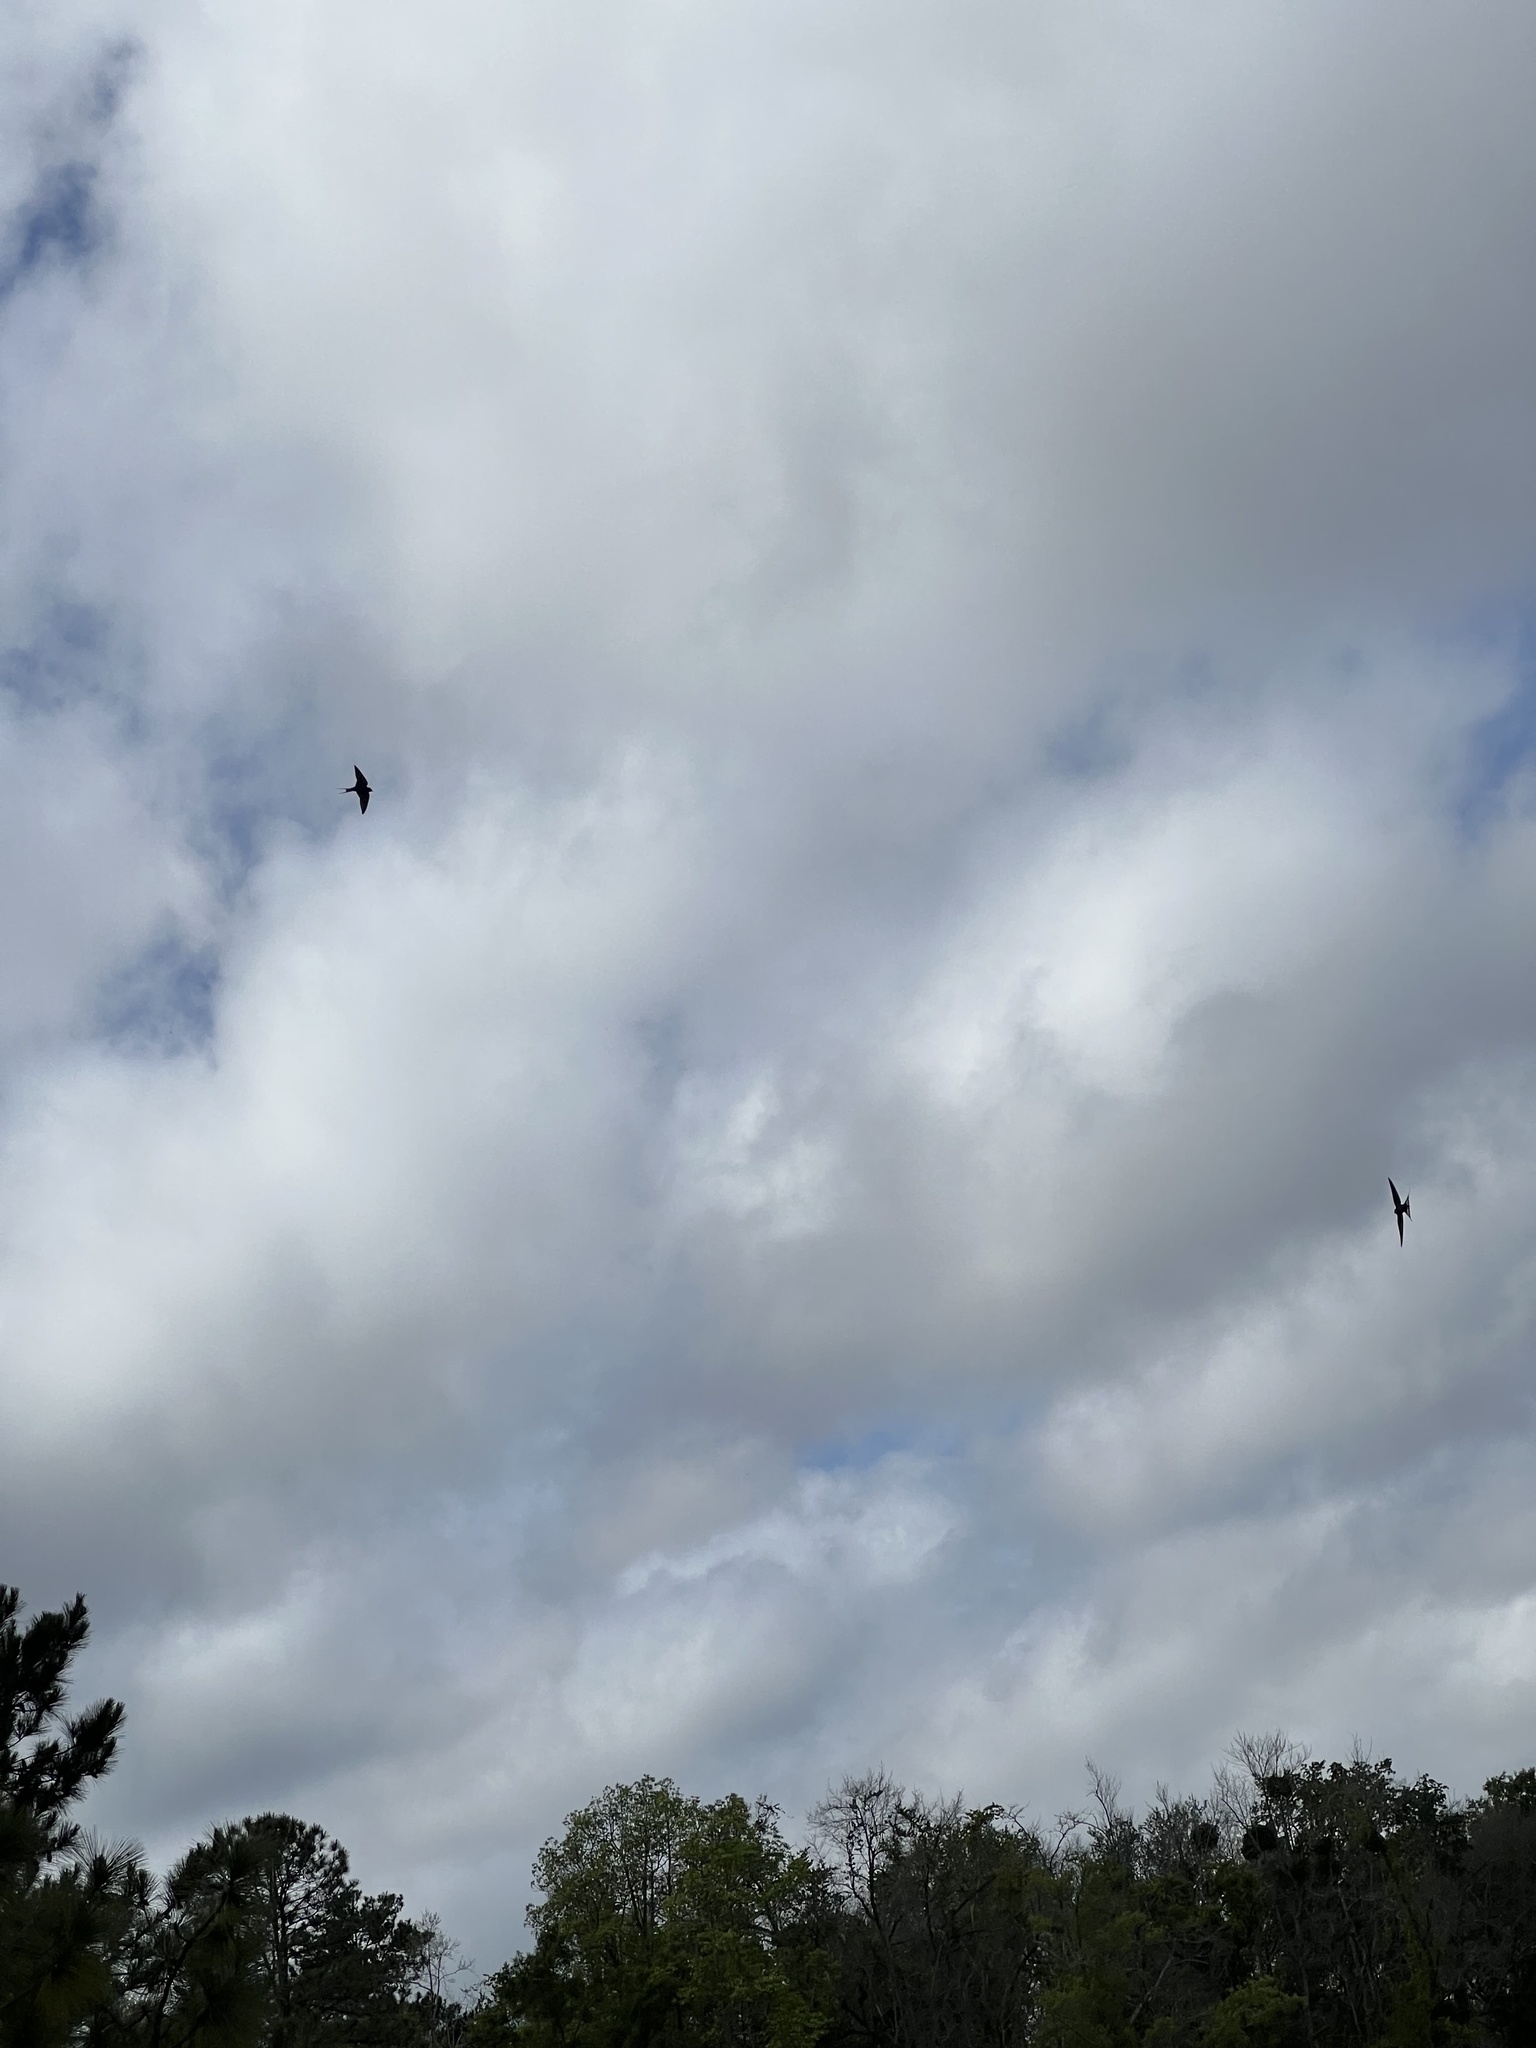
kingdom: Animalia
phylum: Chordata
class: Aves
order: Passeriformes
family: Hirundinidae
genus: Hirundo
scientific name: Hirundo rustica
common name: Barn swallow
